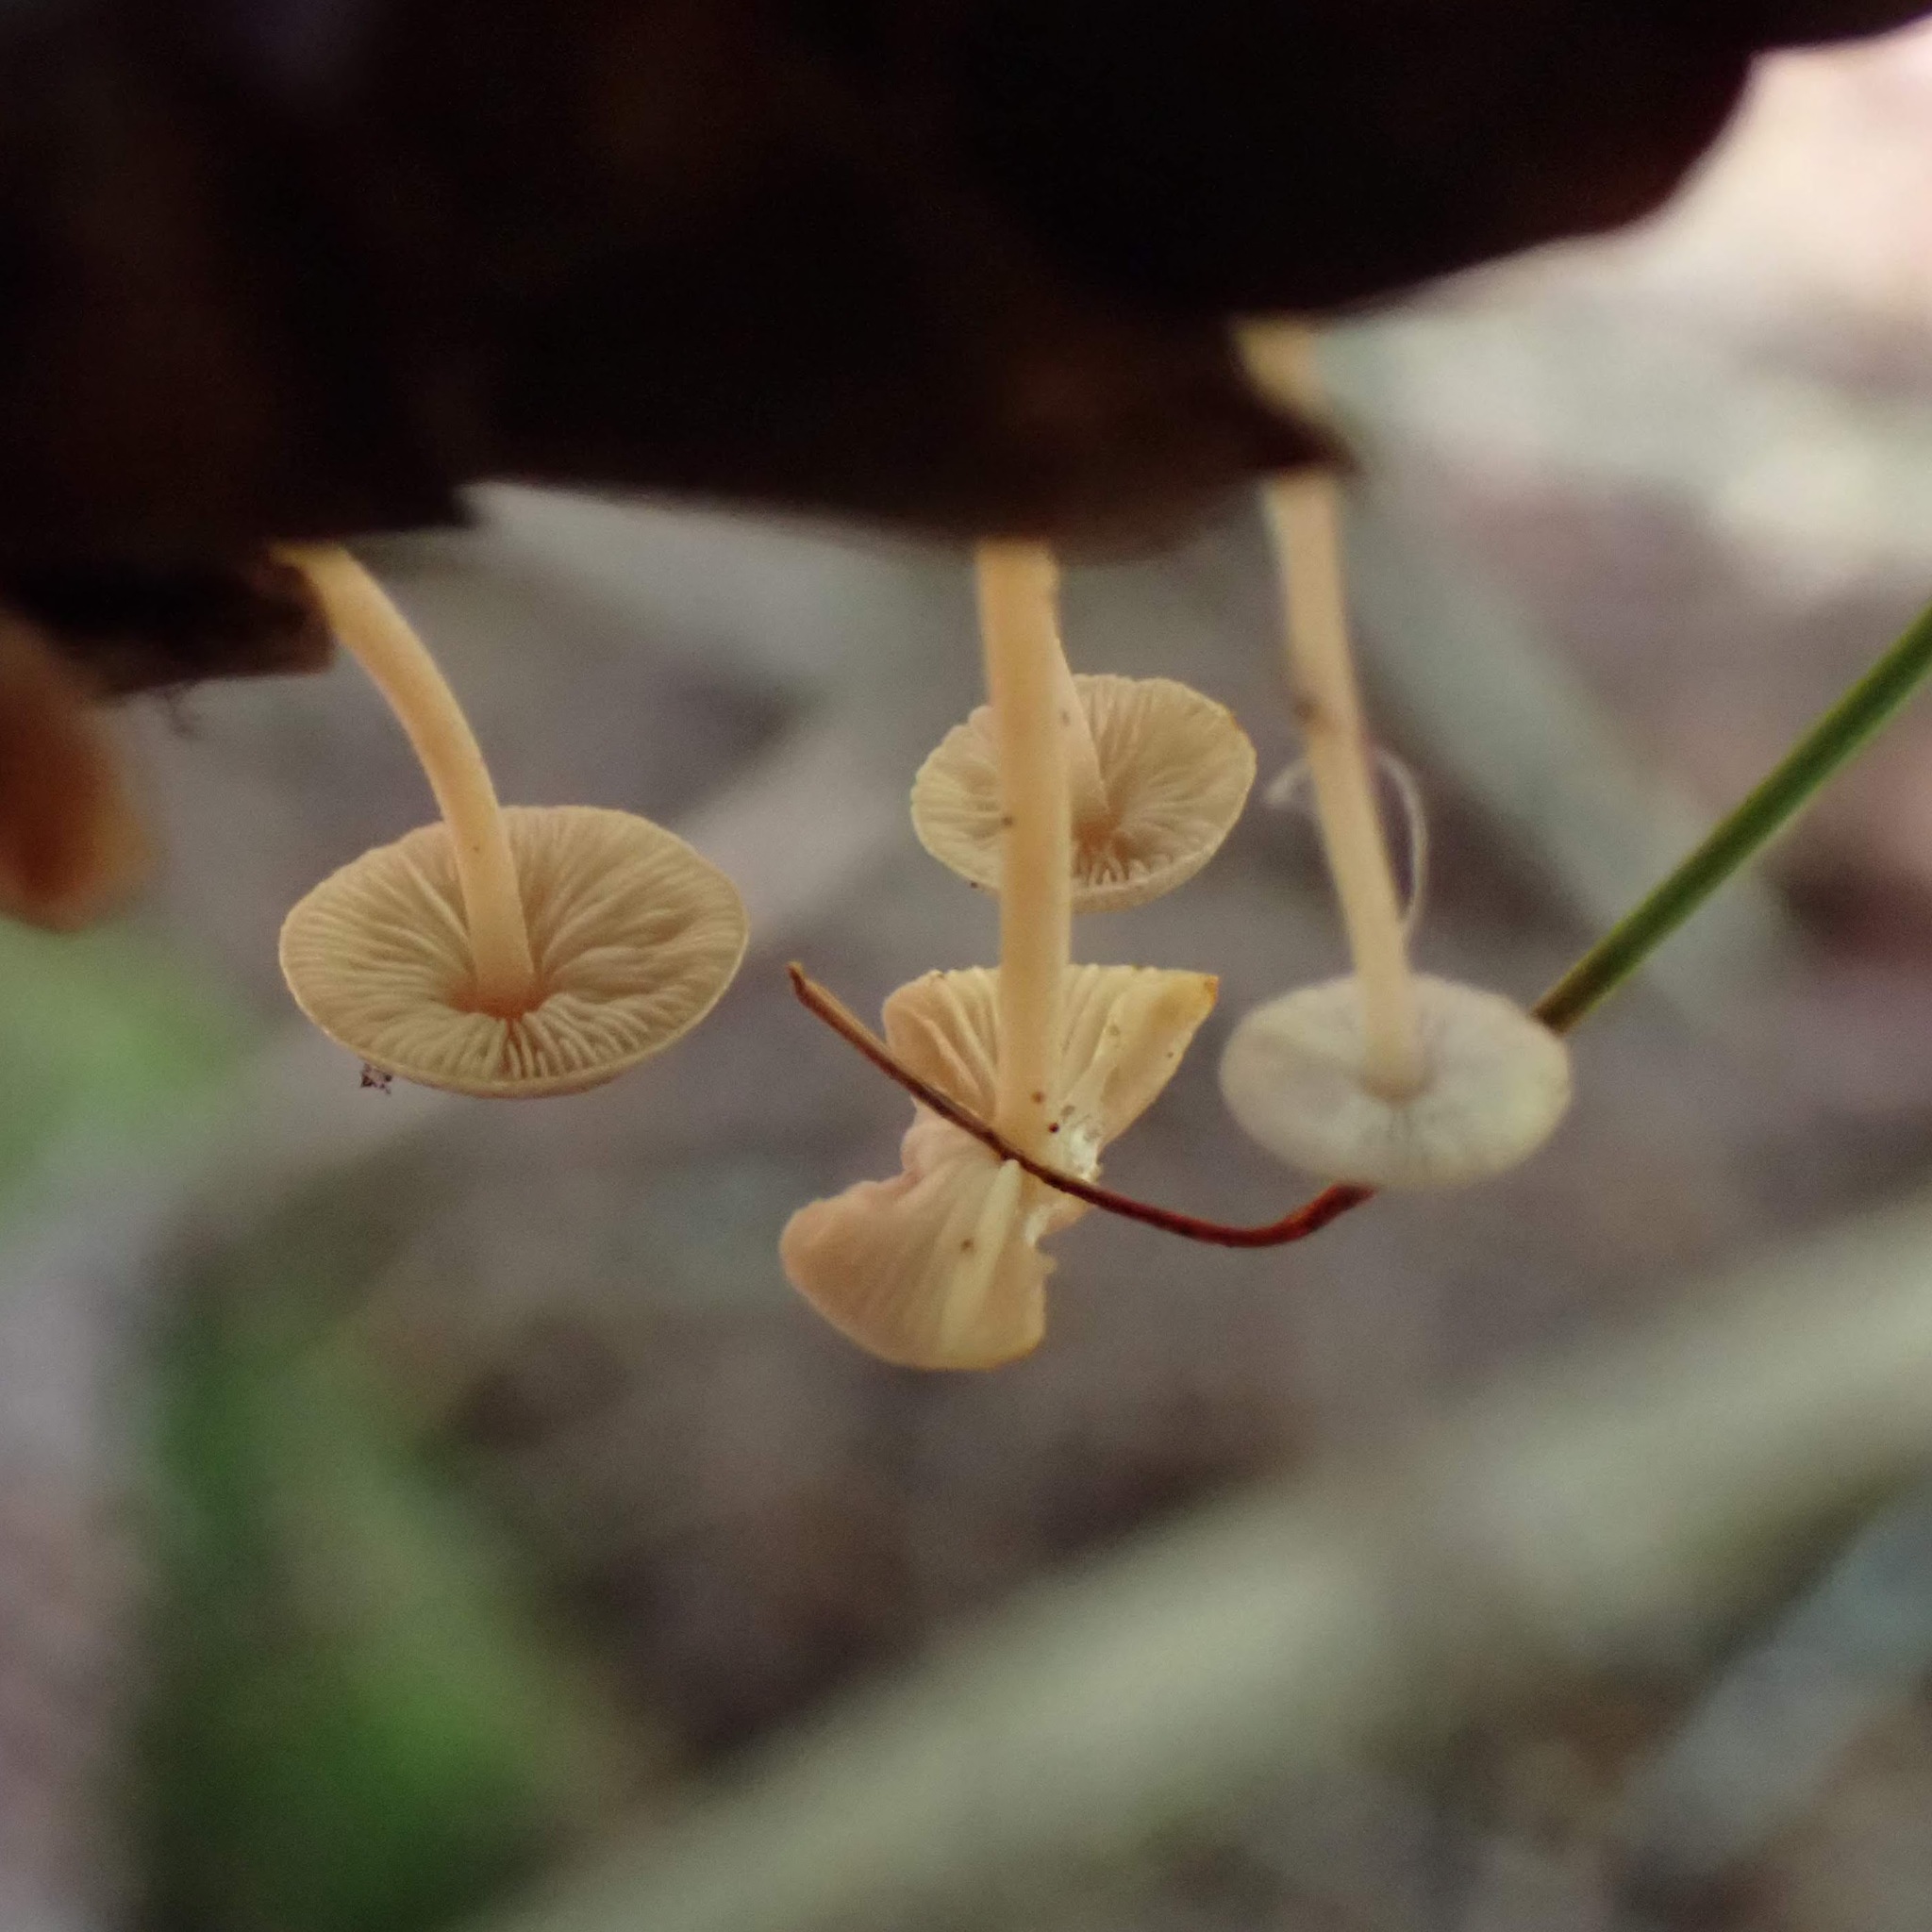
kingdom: Fungi
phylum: Basidiomycota
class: Agaricomycetes
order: Agaricales
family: Marasmiaceae
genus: Baeospora
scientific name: Baeospora myosura
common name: Conifercone cap
